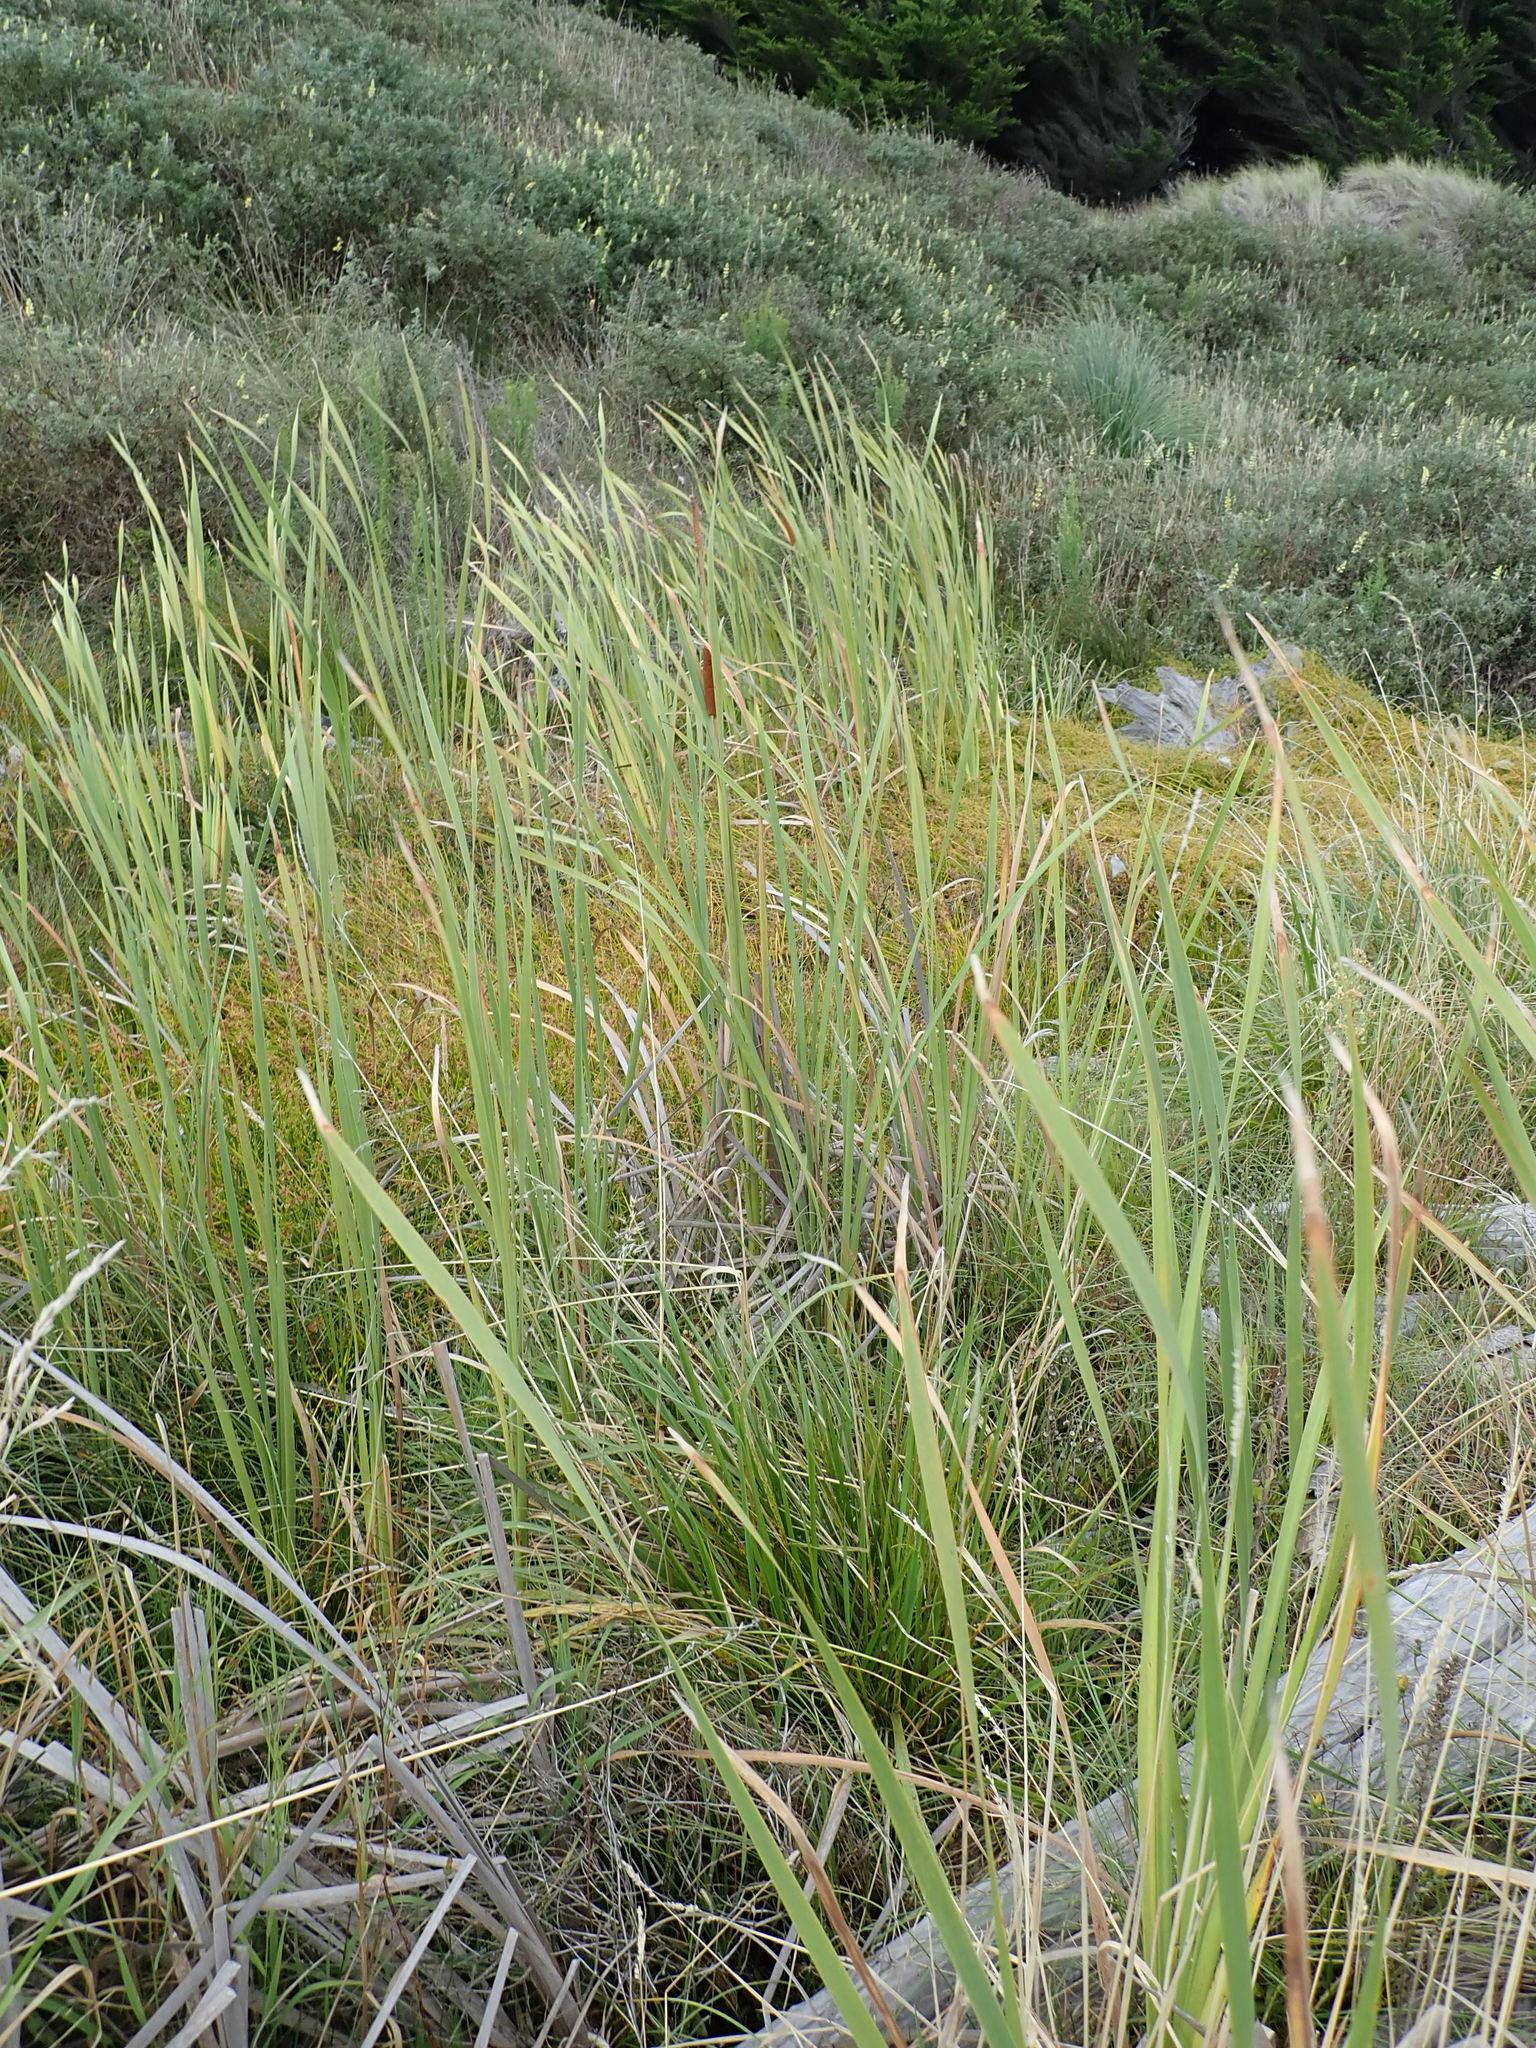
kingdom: Plantae
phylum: Tracheophyta
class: Liliopsida
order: Poales
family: Typhaceae
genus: Typha
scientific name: Typha orientalis
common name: Bullrush
